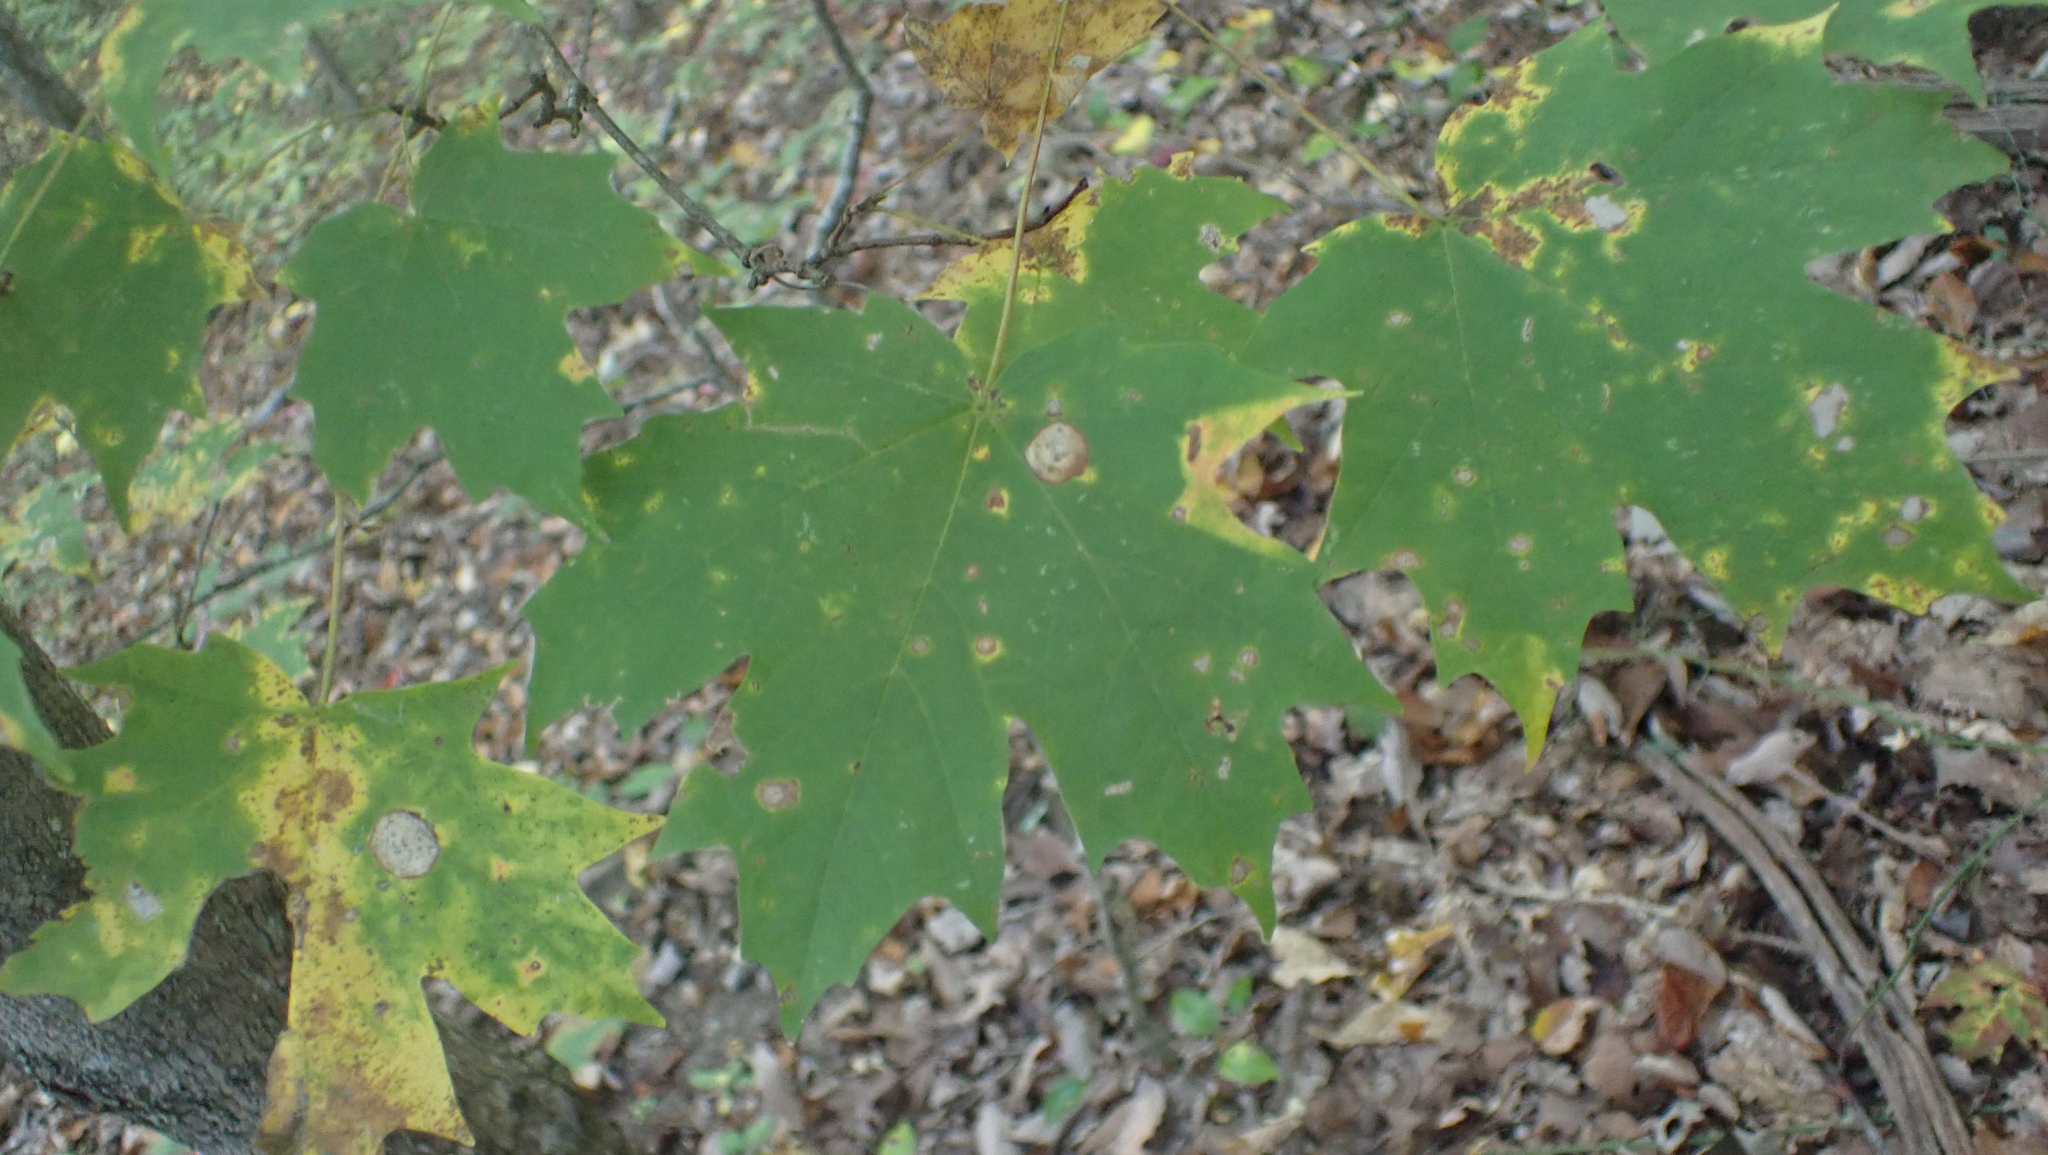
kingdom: Plantae
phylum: Tracheophyta
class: Magnoliopsida
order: Sapindales
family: Sapindaceae
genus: Acer
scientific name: Acer saccharum
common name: Sugar maple
